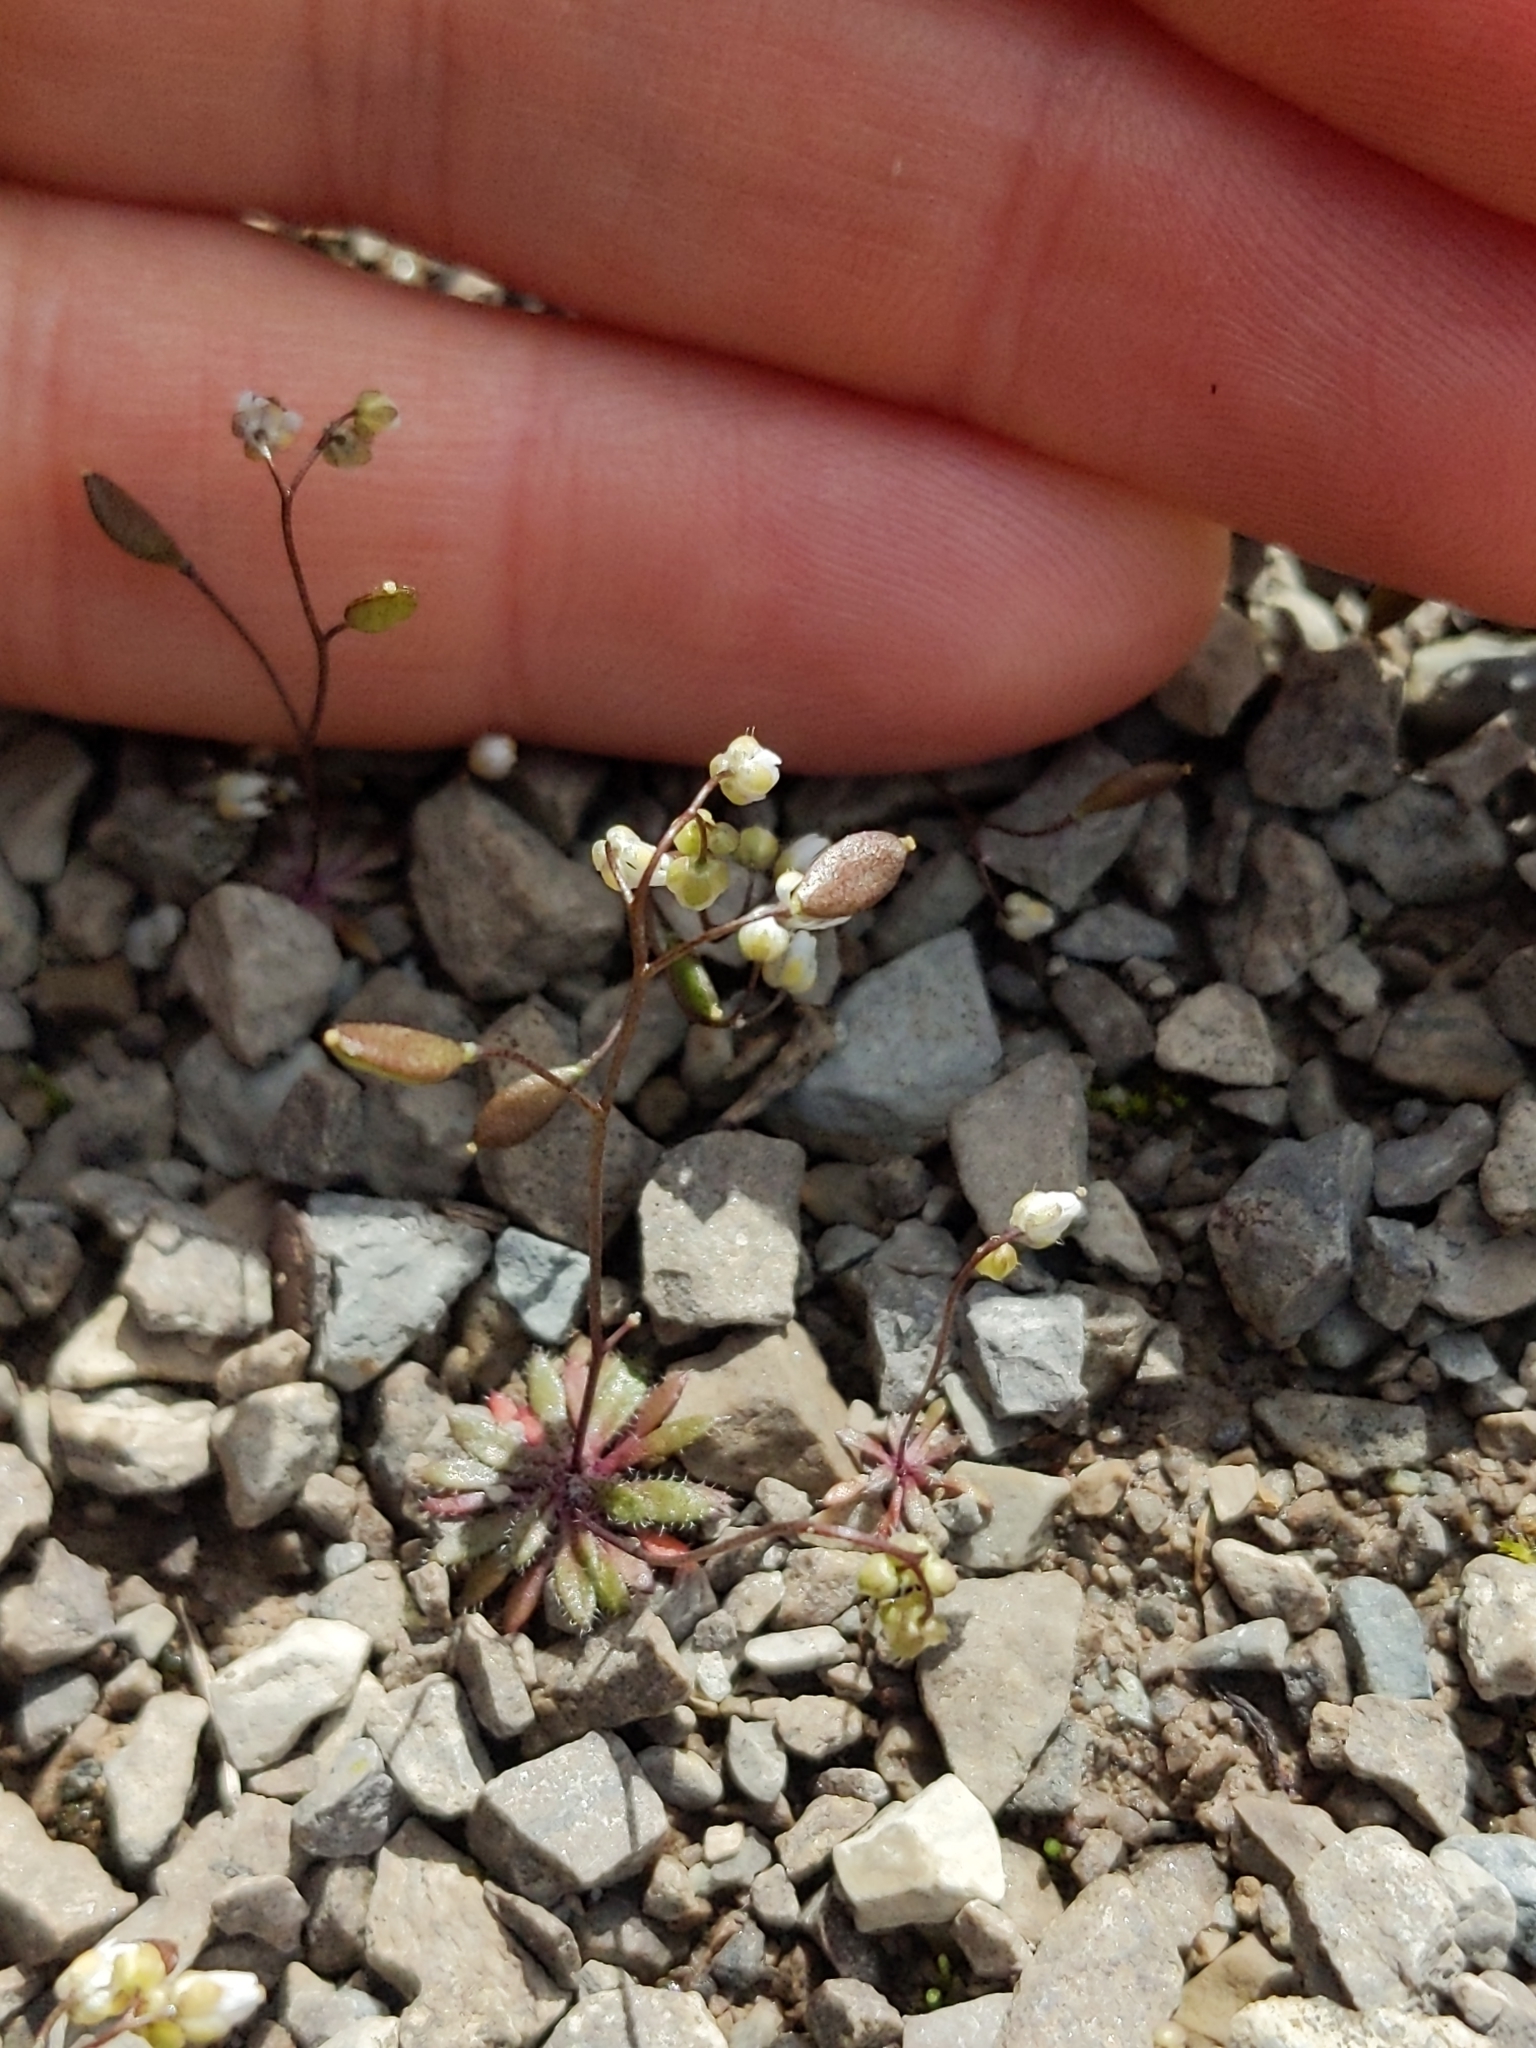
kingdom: Plantae
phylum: Tracheophyta
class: Magnoliopsida
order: Brassicales
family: Brassicaceae
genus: Draba
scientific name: Draba verna
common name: Spring draba
